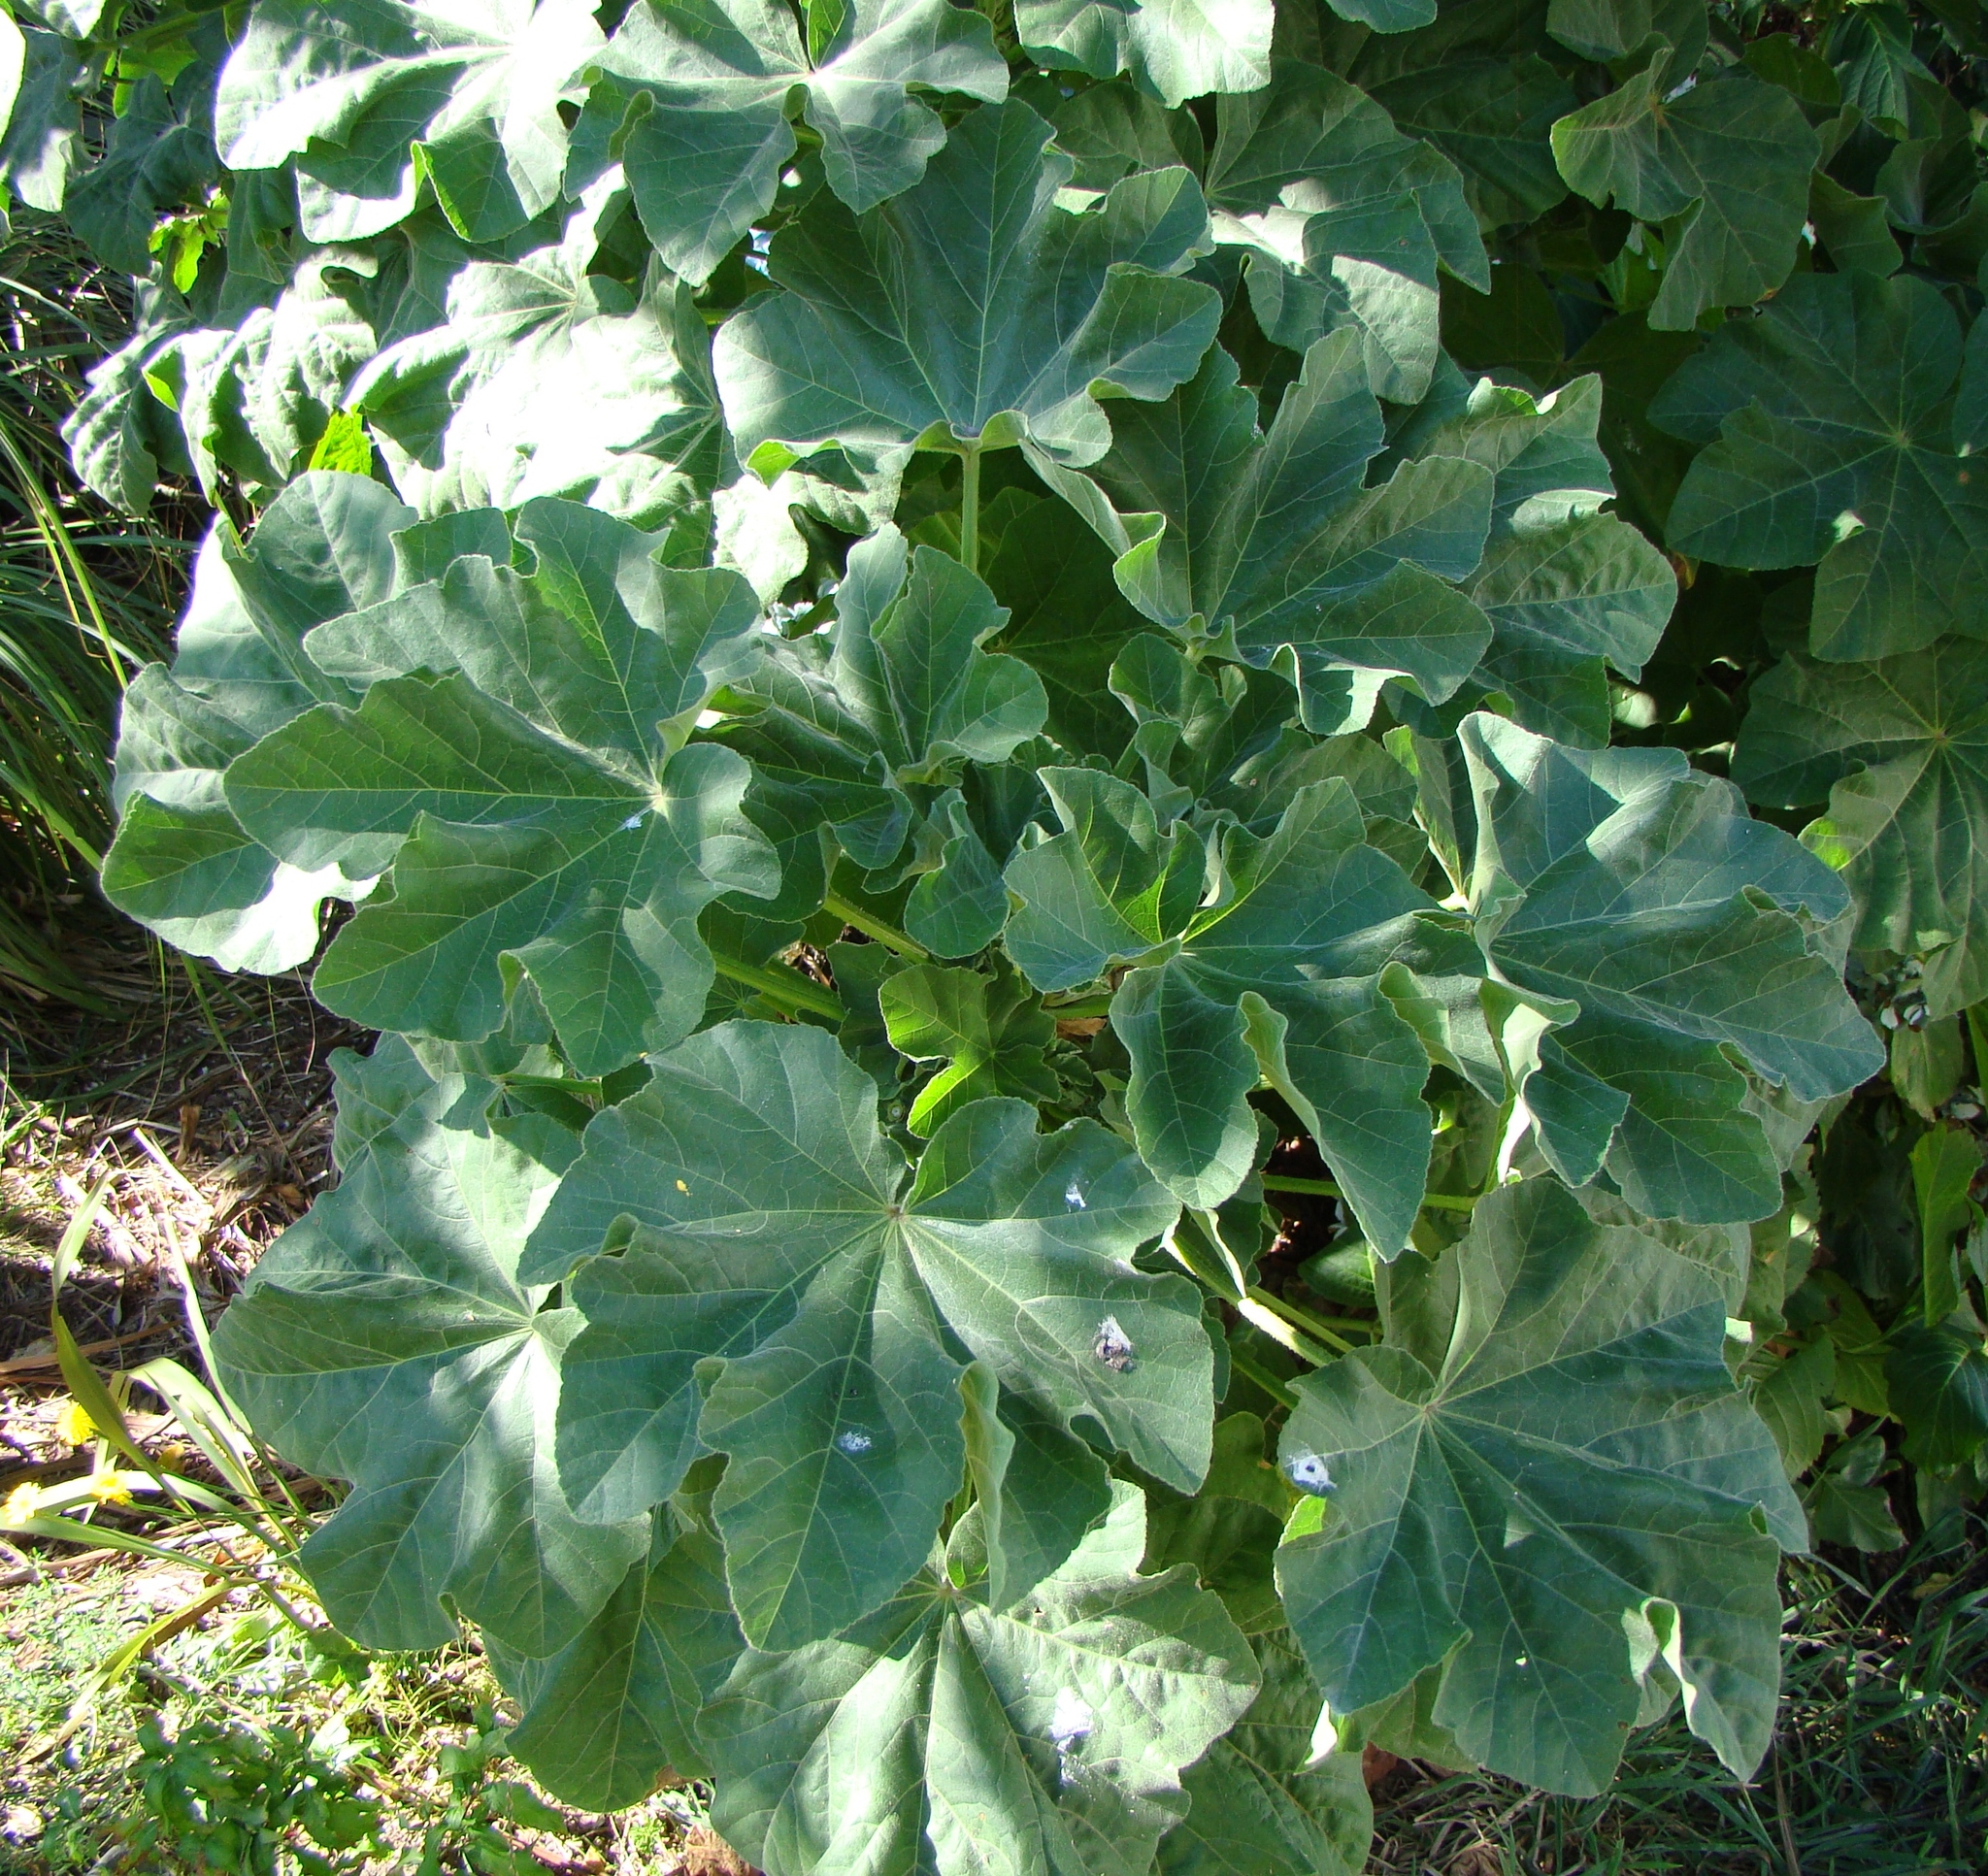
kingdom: Plantae
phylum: Tracheophyta
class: Magnoliopsida
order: Malvales
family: Malvaceae
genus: Malva
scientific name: Malva arborea
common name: Tree mallow
